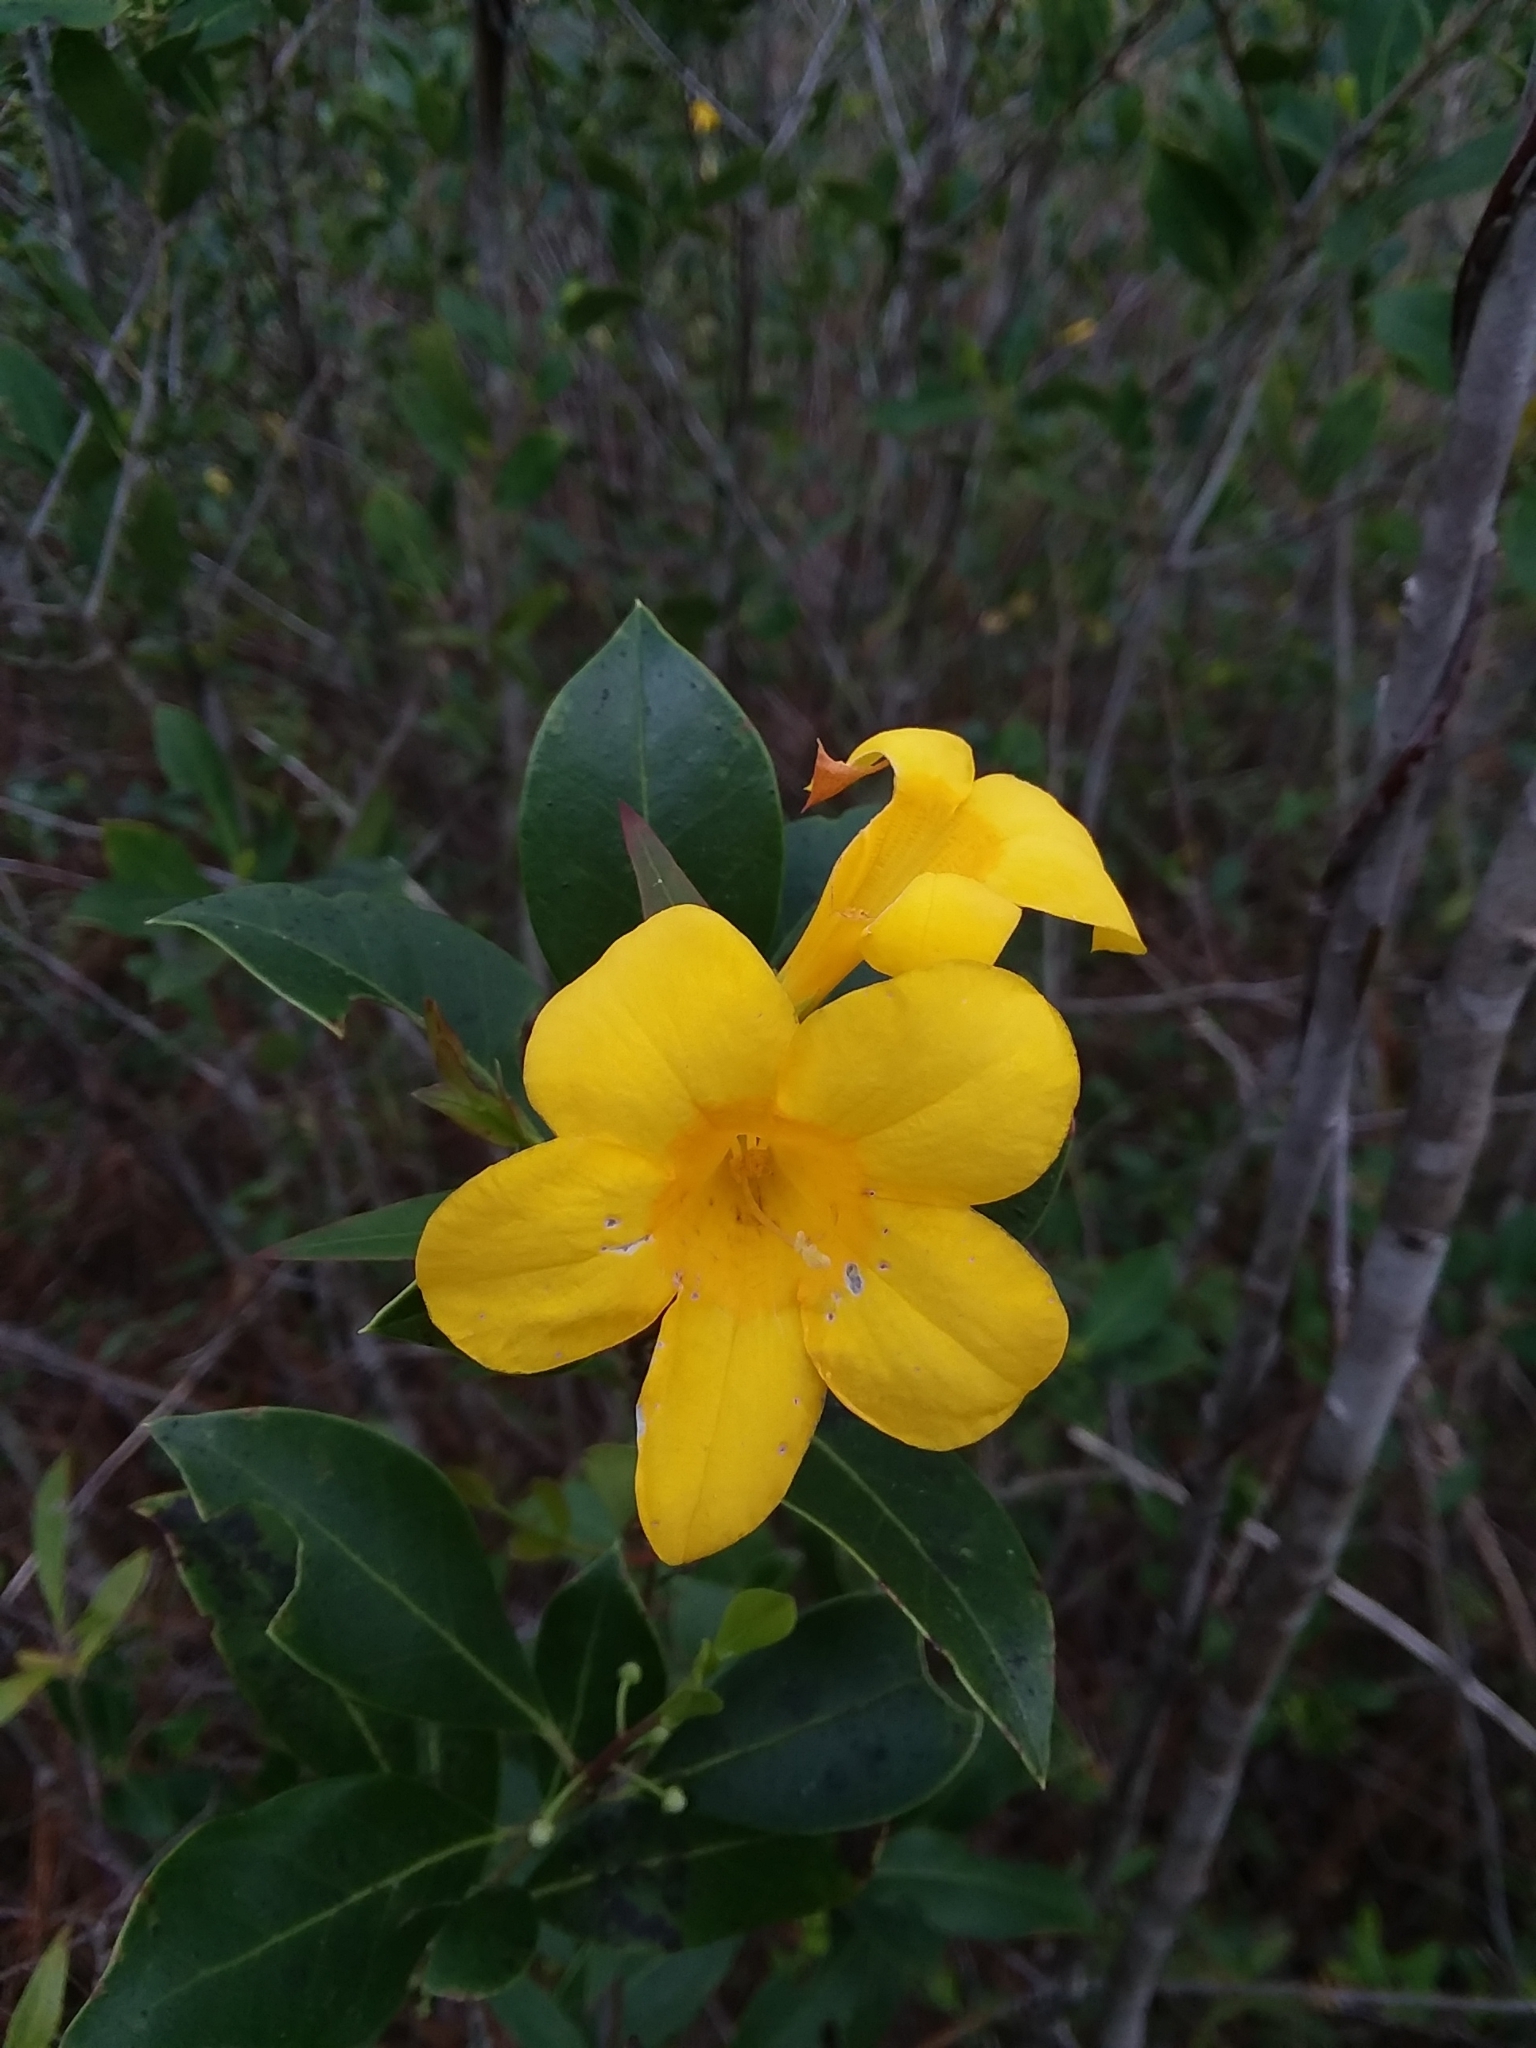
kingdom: Plantae
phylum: Tracheophyta
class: Magnoliopsida
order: Gentianales
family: Gelsemiaceae
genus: Gelsemium
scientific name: Gelsemium rankinii
